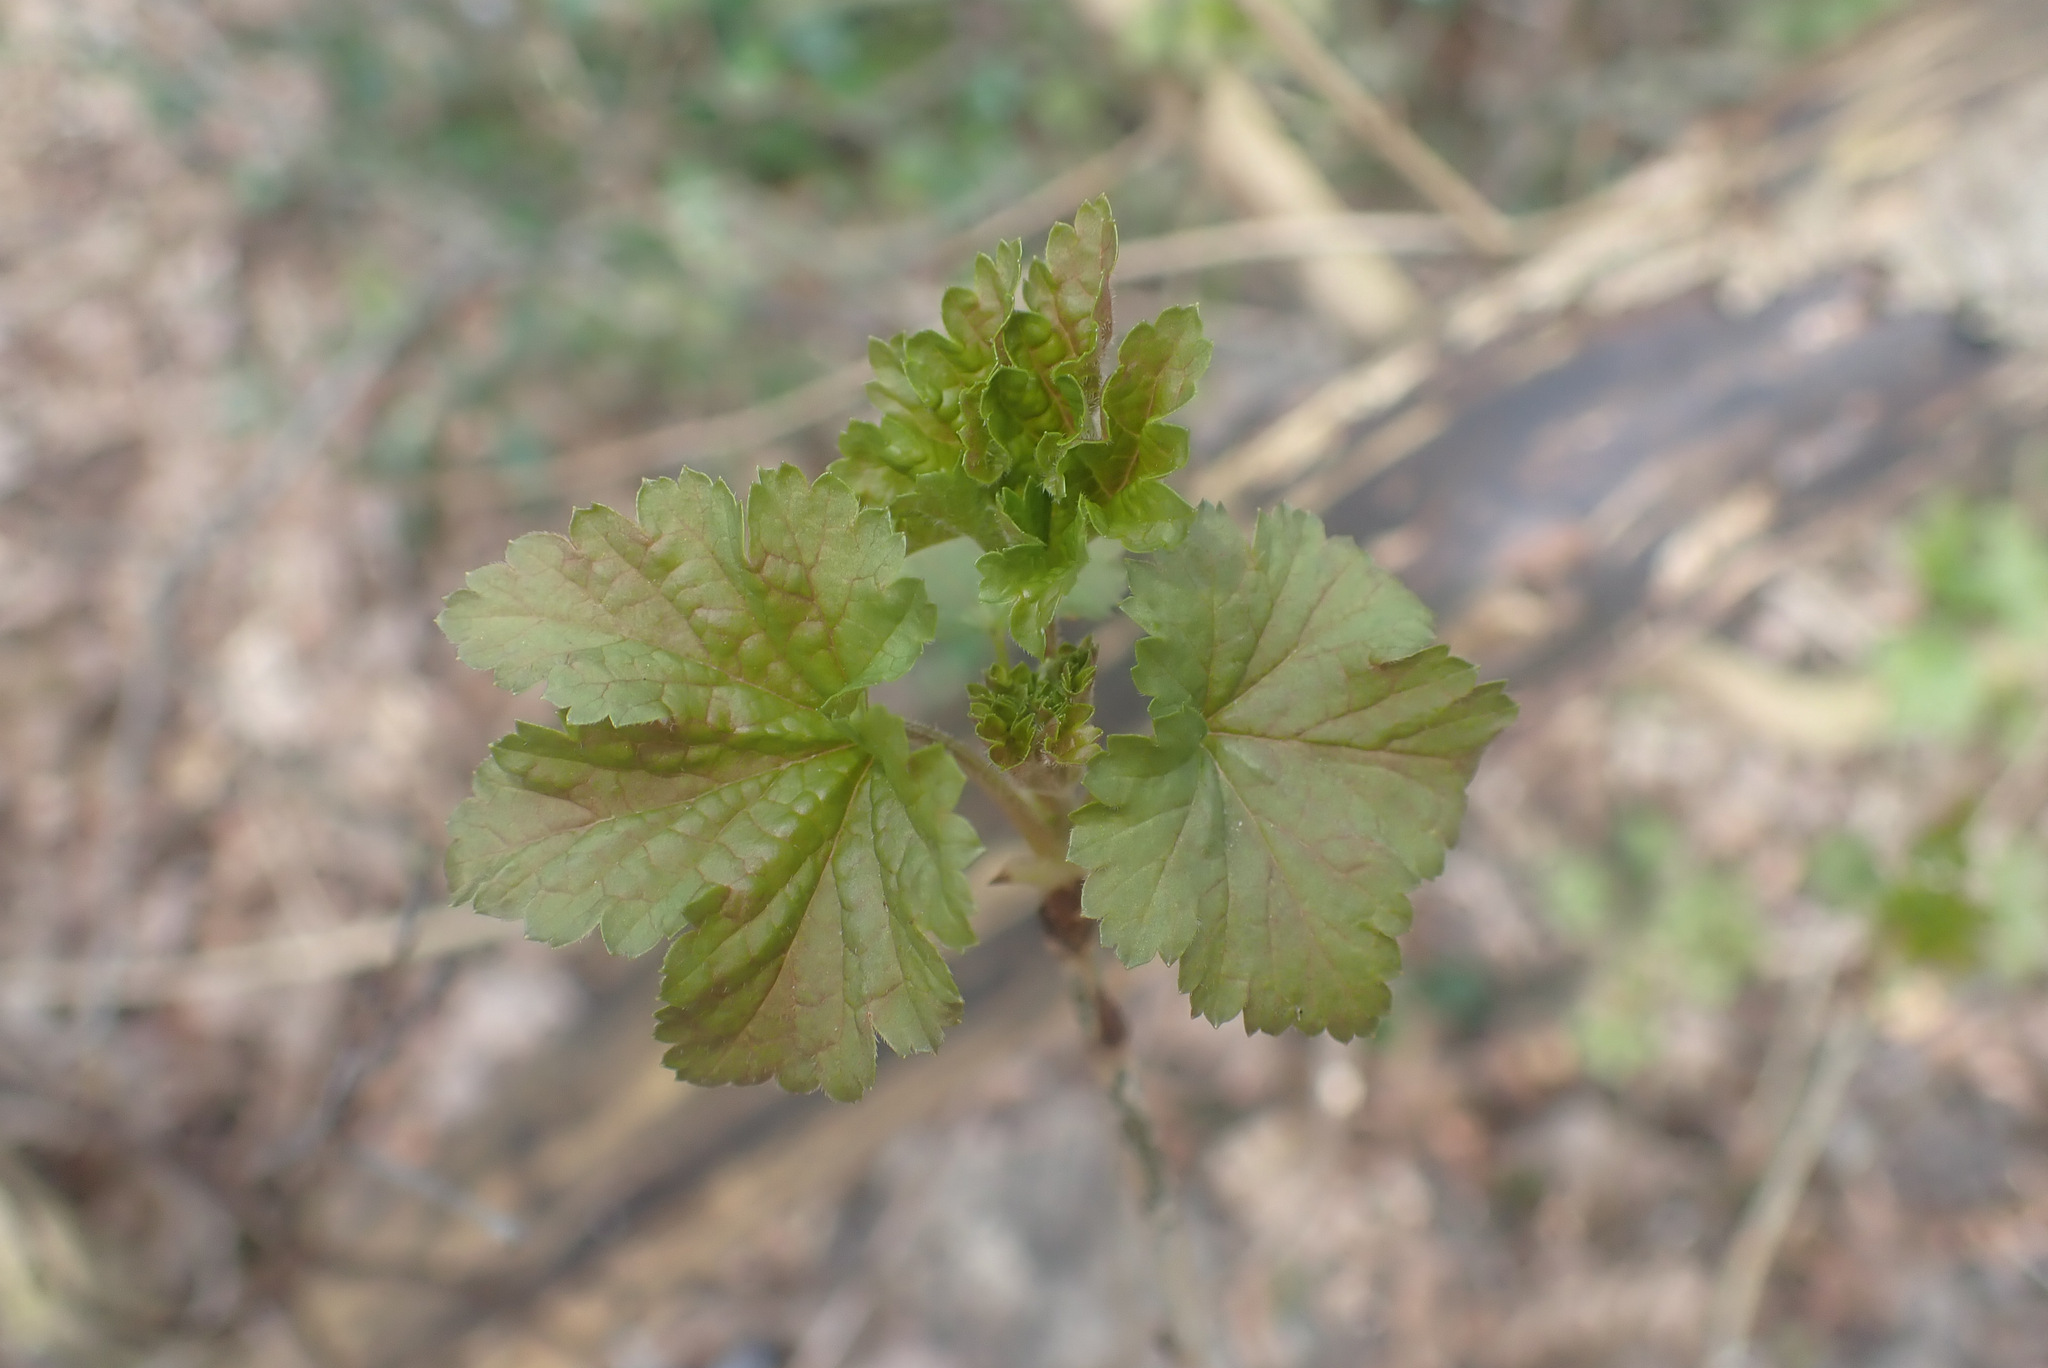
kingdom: Plantae
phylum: Tracheophyta
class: Magnoliopsida
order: Saxifragales
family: Grossulariaceae
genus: Ribes
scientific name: Ribes rubrum
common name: Red currant
